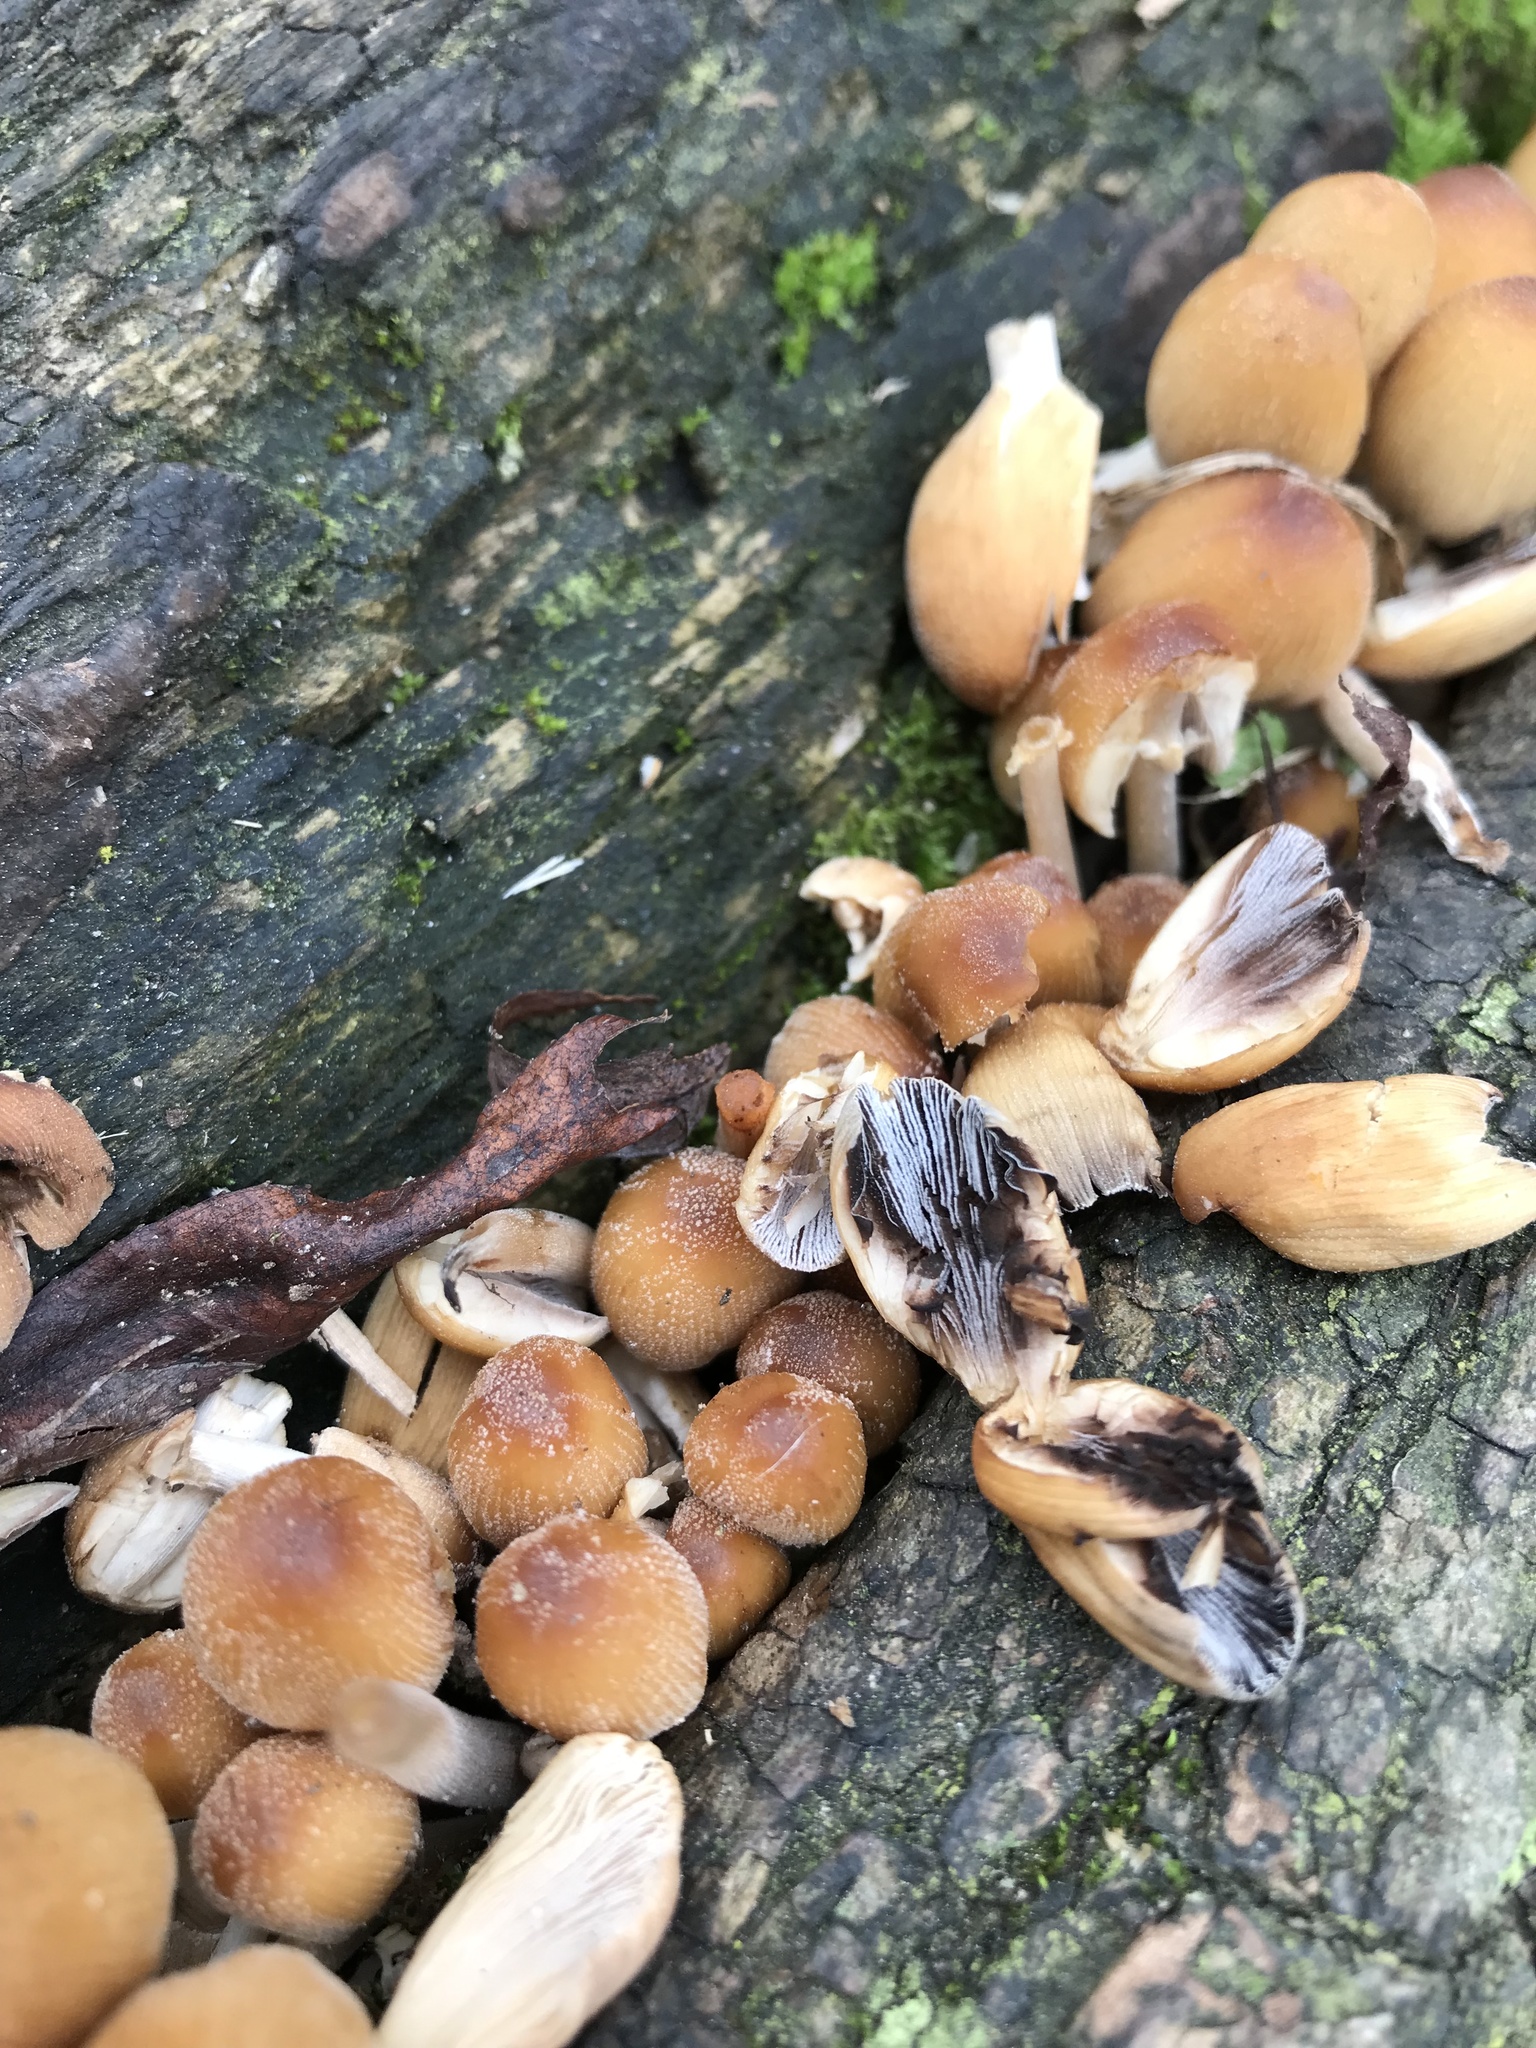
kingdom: Fungi
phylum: Basidiomycota
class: Agaricomycetes
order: Agaricales
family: Psathyrellaceae
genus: Coprinellus
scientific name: Coprinellus micaceus
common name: Glistening ink-cap
